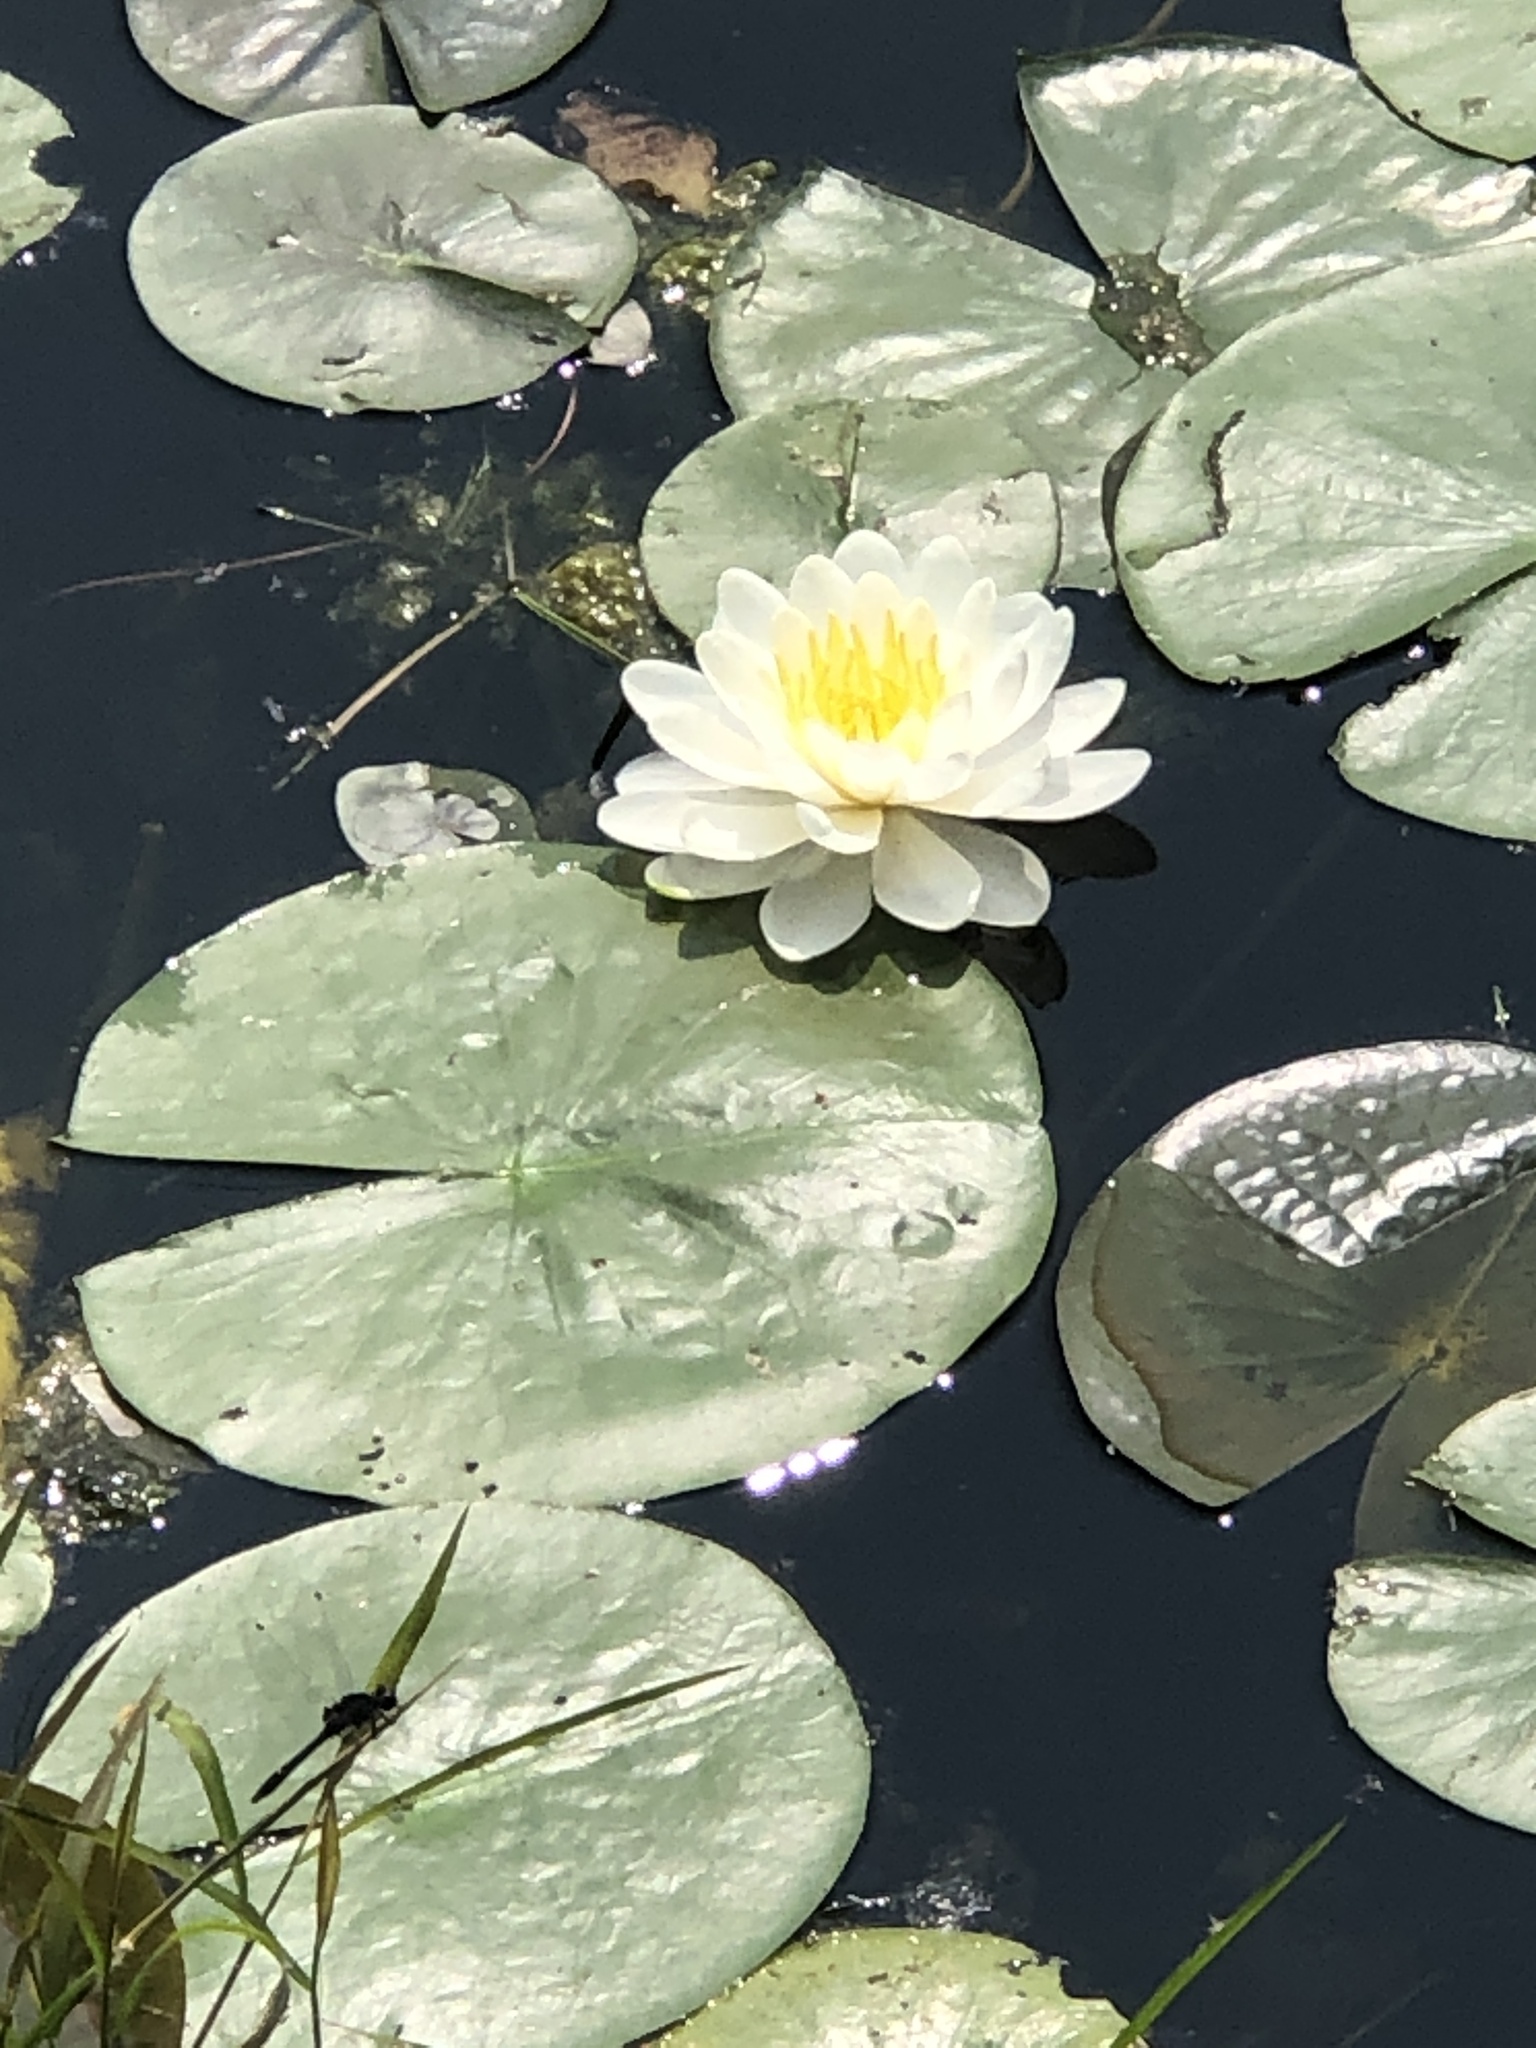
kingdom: Plantae
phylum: Tracheophyta
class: Magnoliopsida
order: Nymphaeales
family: Nymphaeaceae
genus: Nymphaea
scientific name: Nymphaea odorata
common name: Fragrant water-lily
